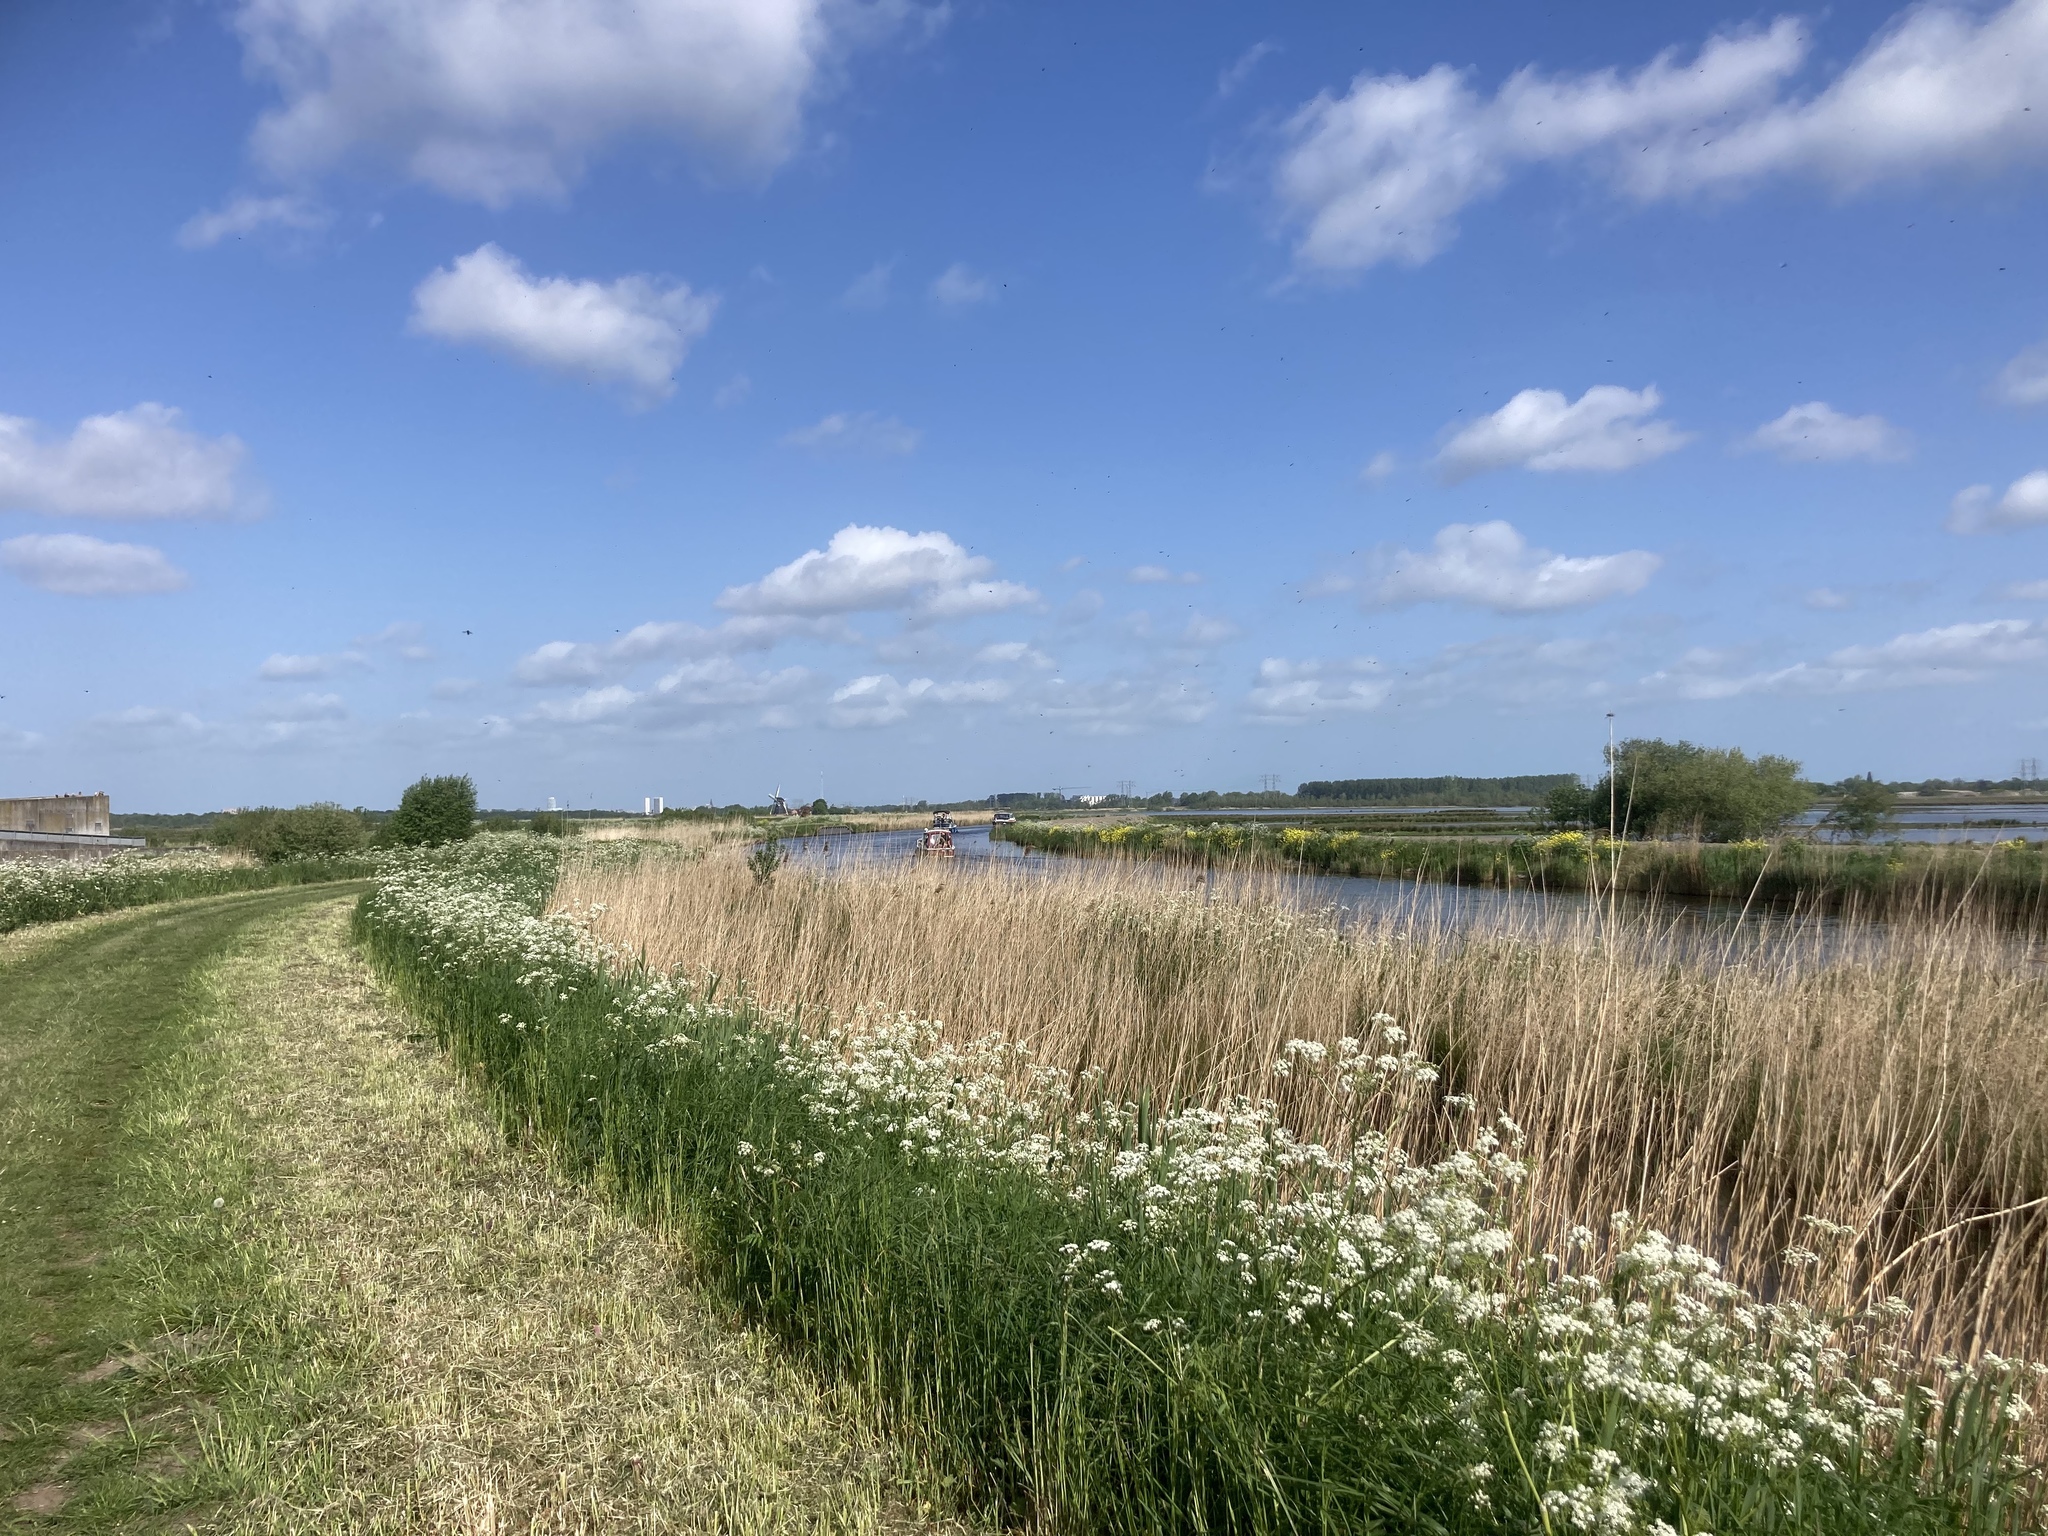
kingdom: Plantae
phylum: Tracheophyta
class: Liliopsida
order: Poales
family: Poaceae
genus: Phragmites
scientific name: Phragmites australis
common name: Common reed
